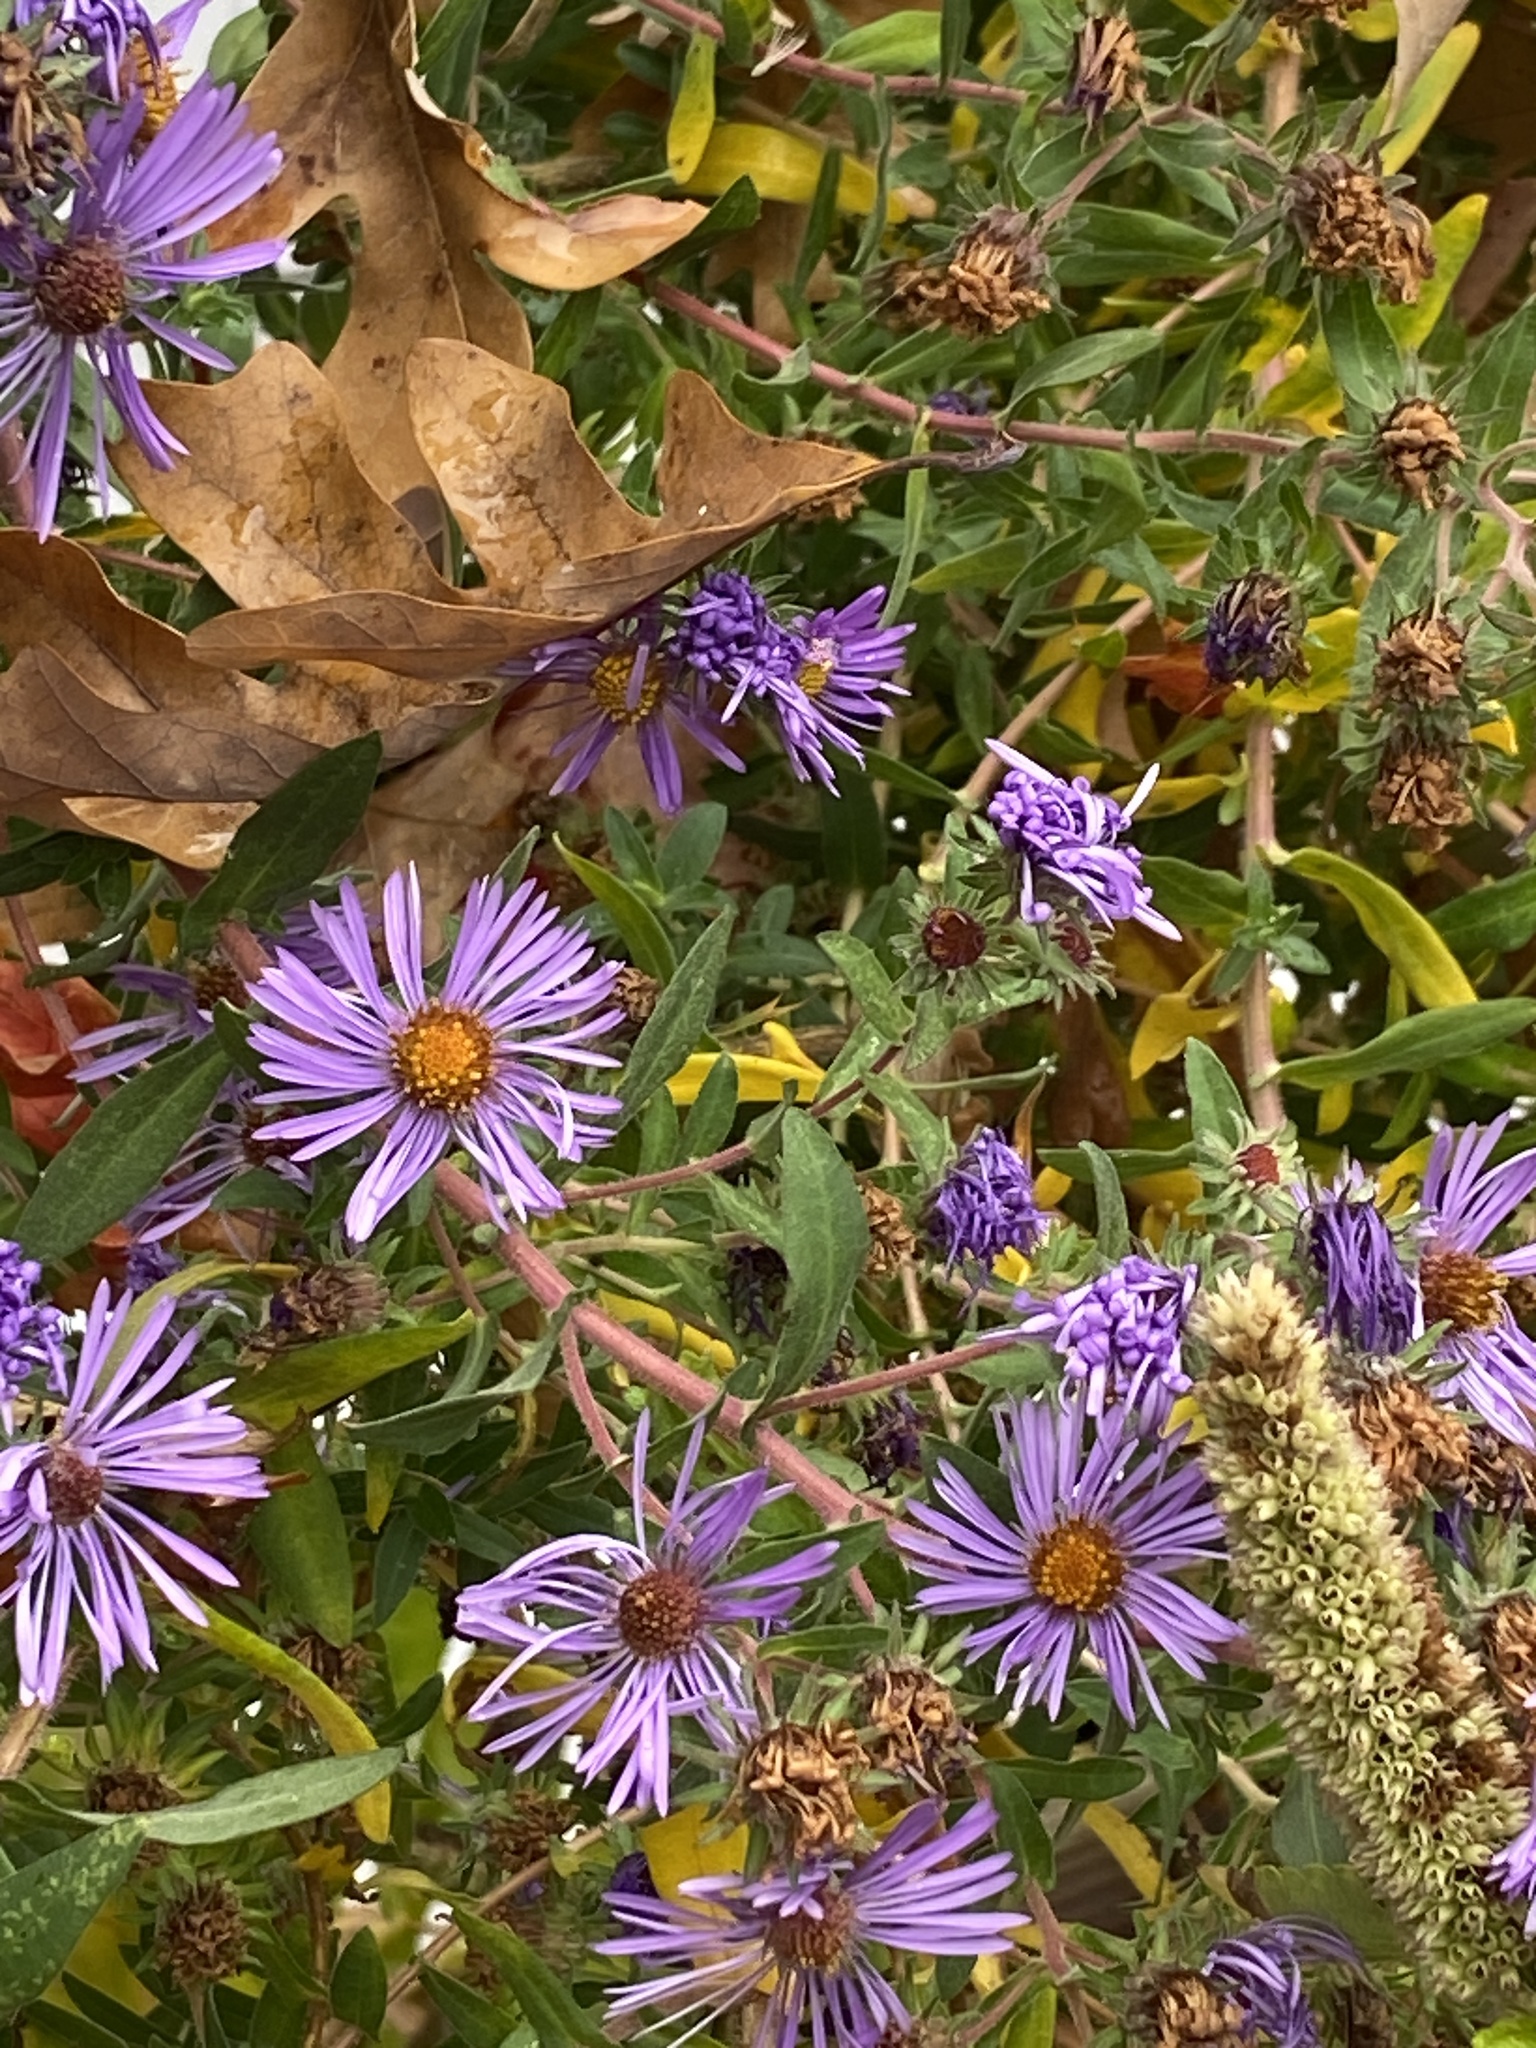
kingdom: Plantae
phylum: Tracheophyta
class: Magnoliopsida
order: Asterales
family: Asteraceae
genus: Symphyotrichum
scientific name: Symphyotrichum novae-angliae
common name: Michaelmas daisy
